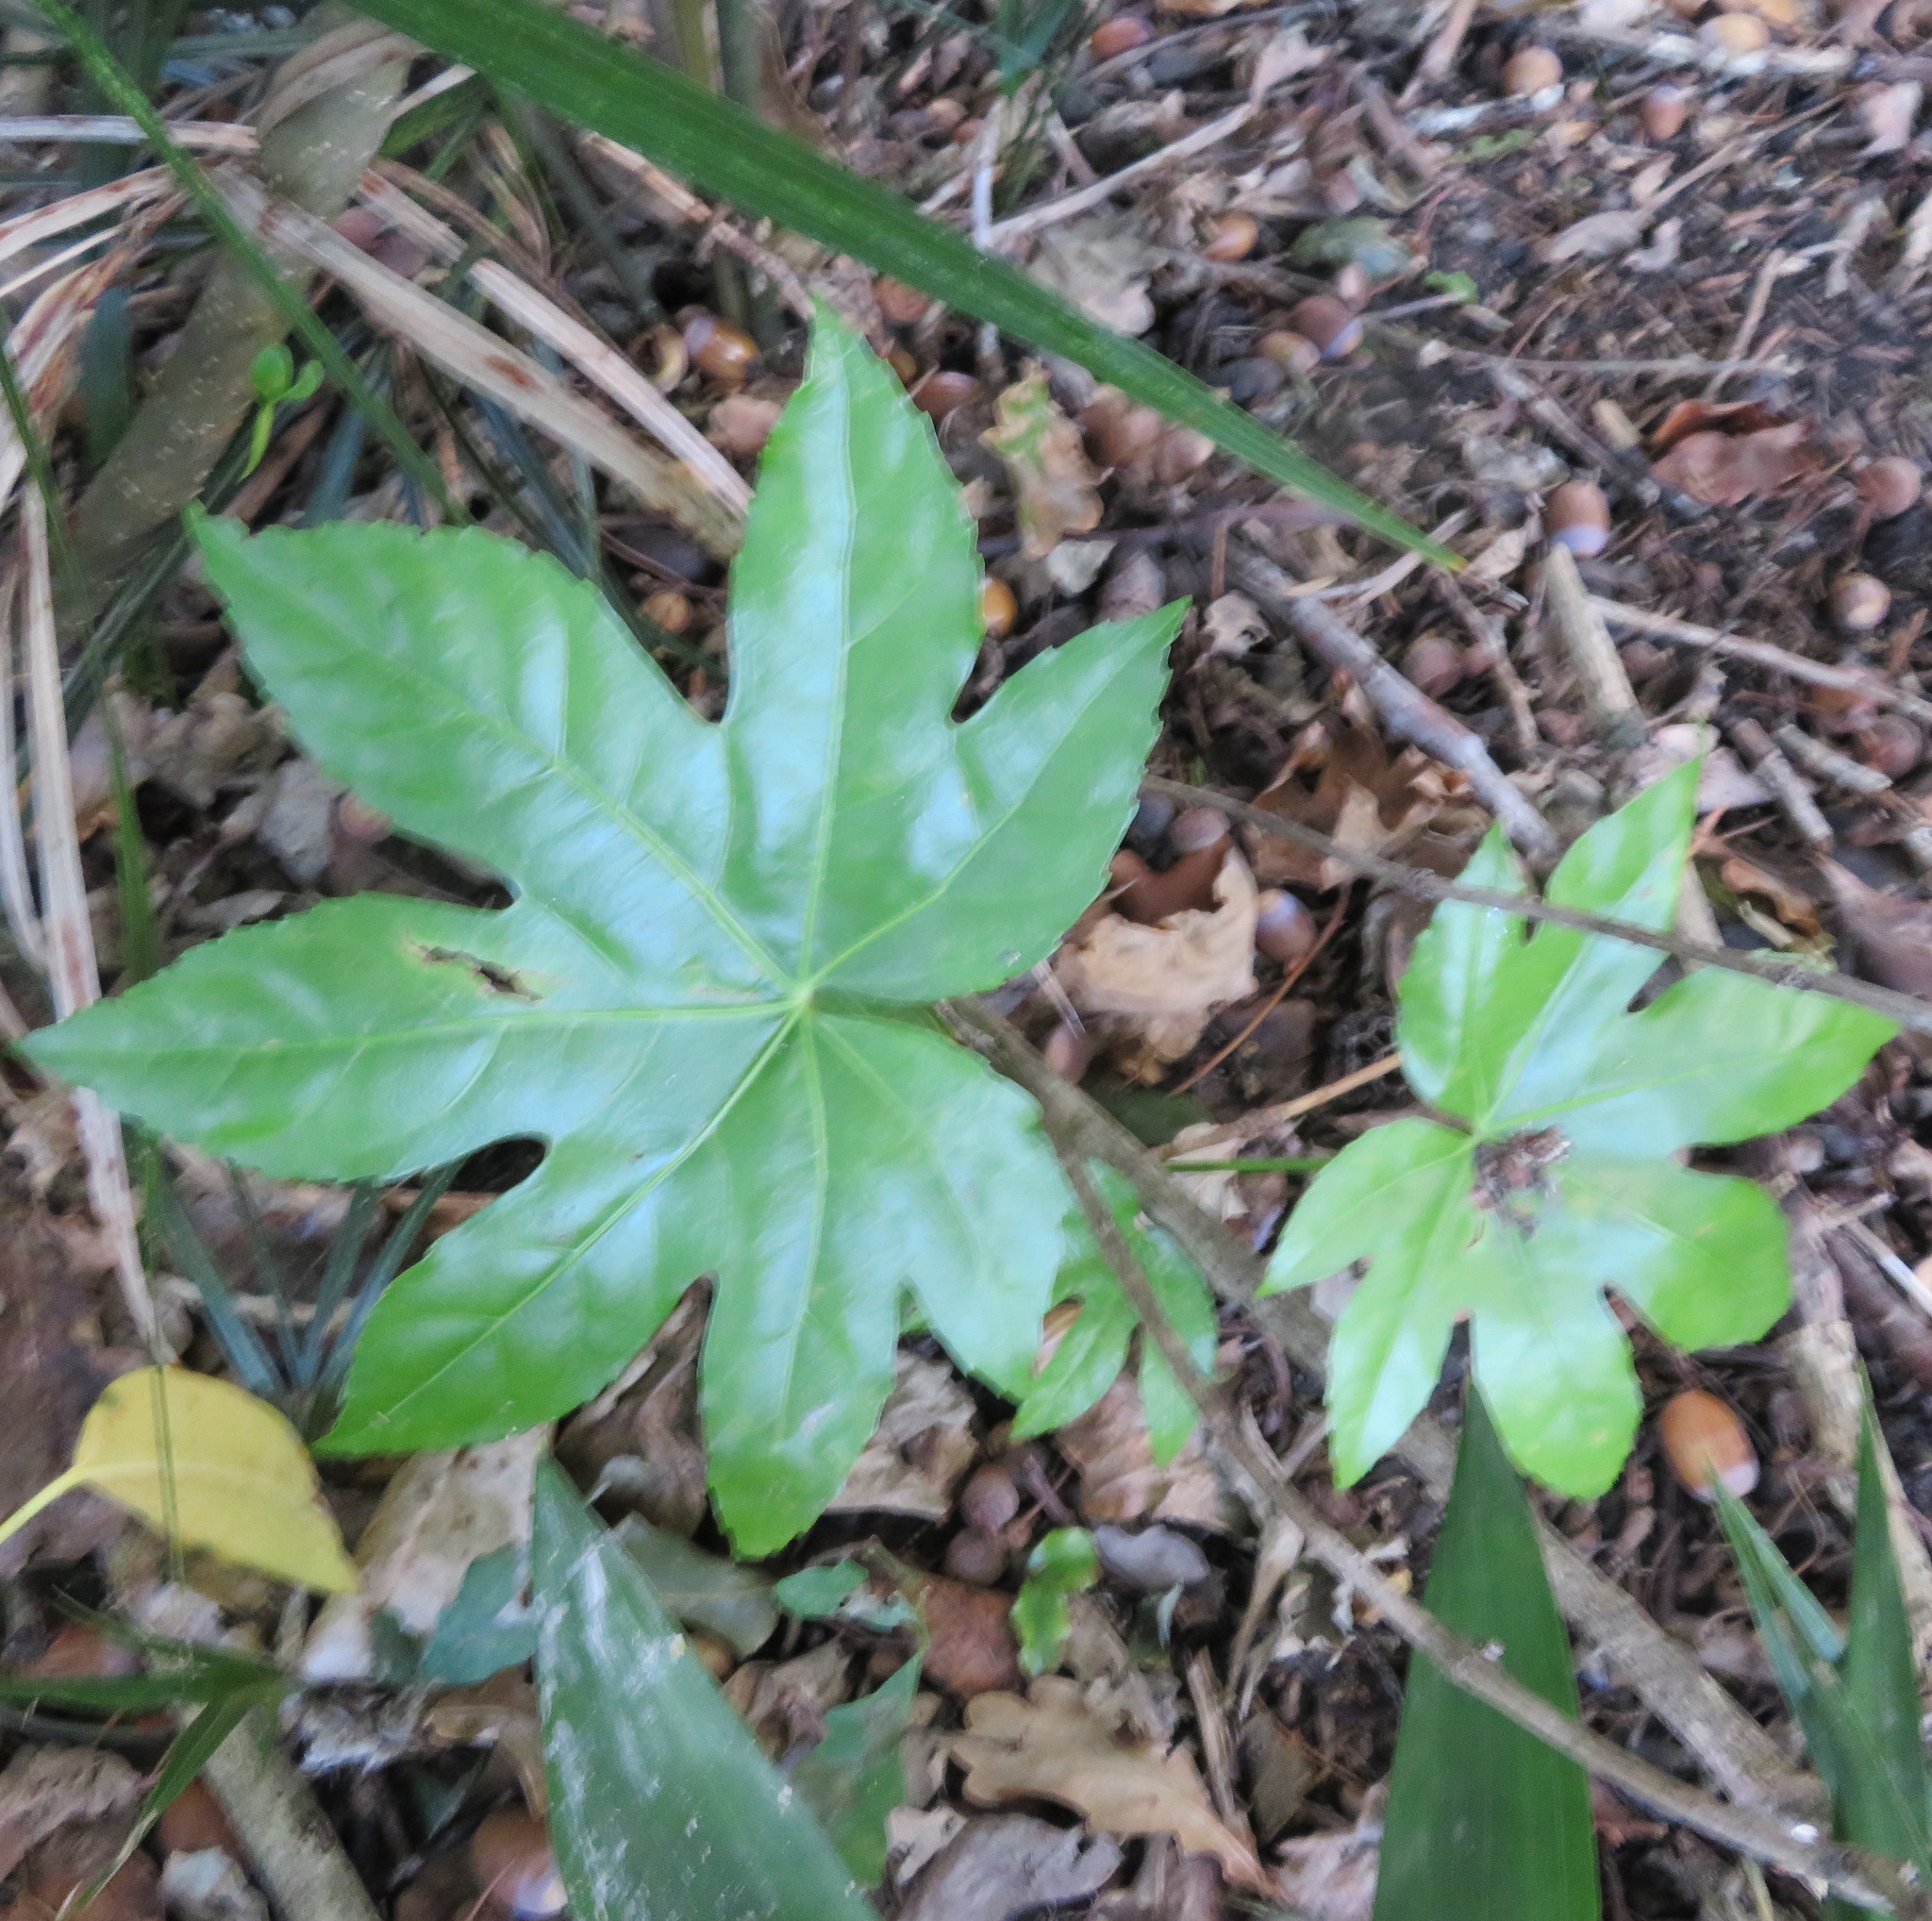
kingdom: Plantae
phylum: Tracheophyta
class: Magnoliopsida
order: Apiales
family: Araliaceae
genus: Fatsia
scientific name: Fatsia japonica
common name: Fatsia
